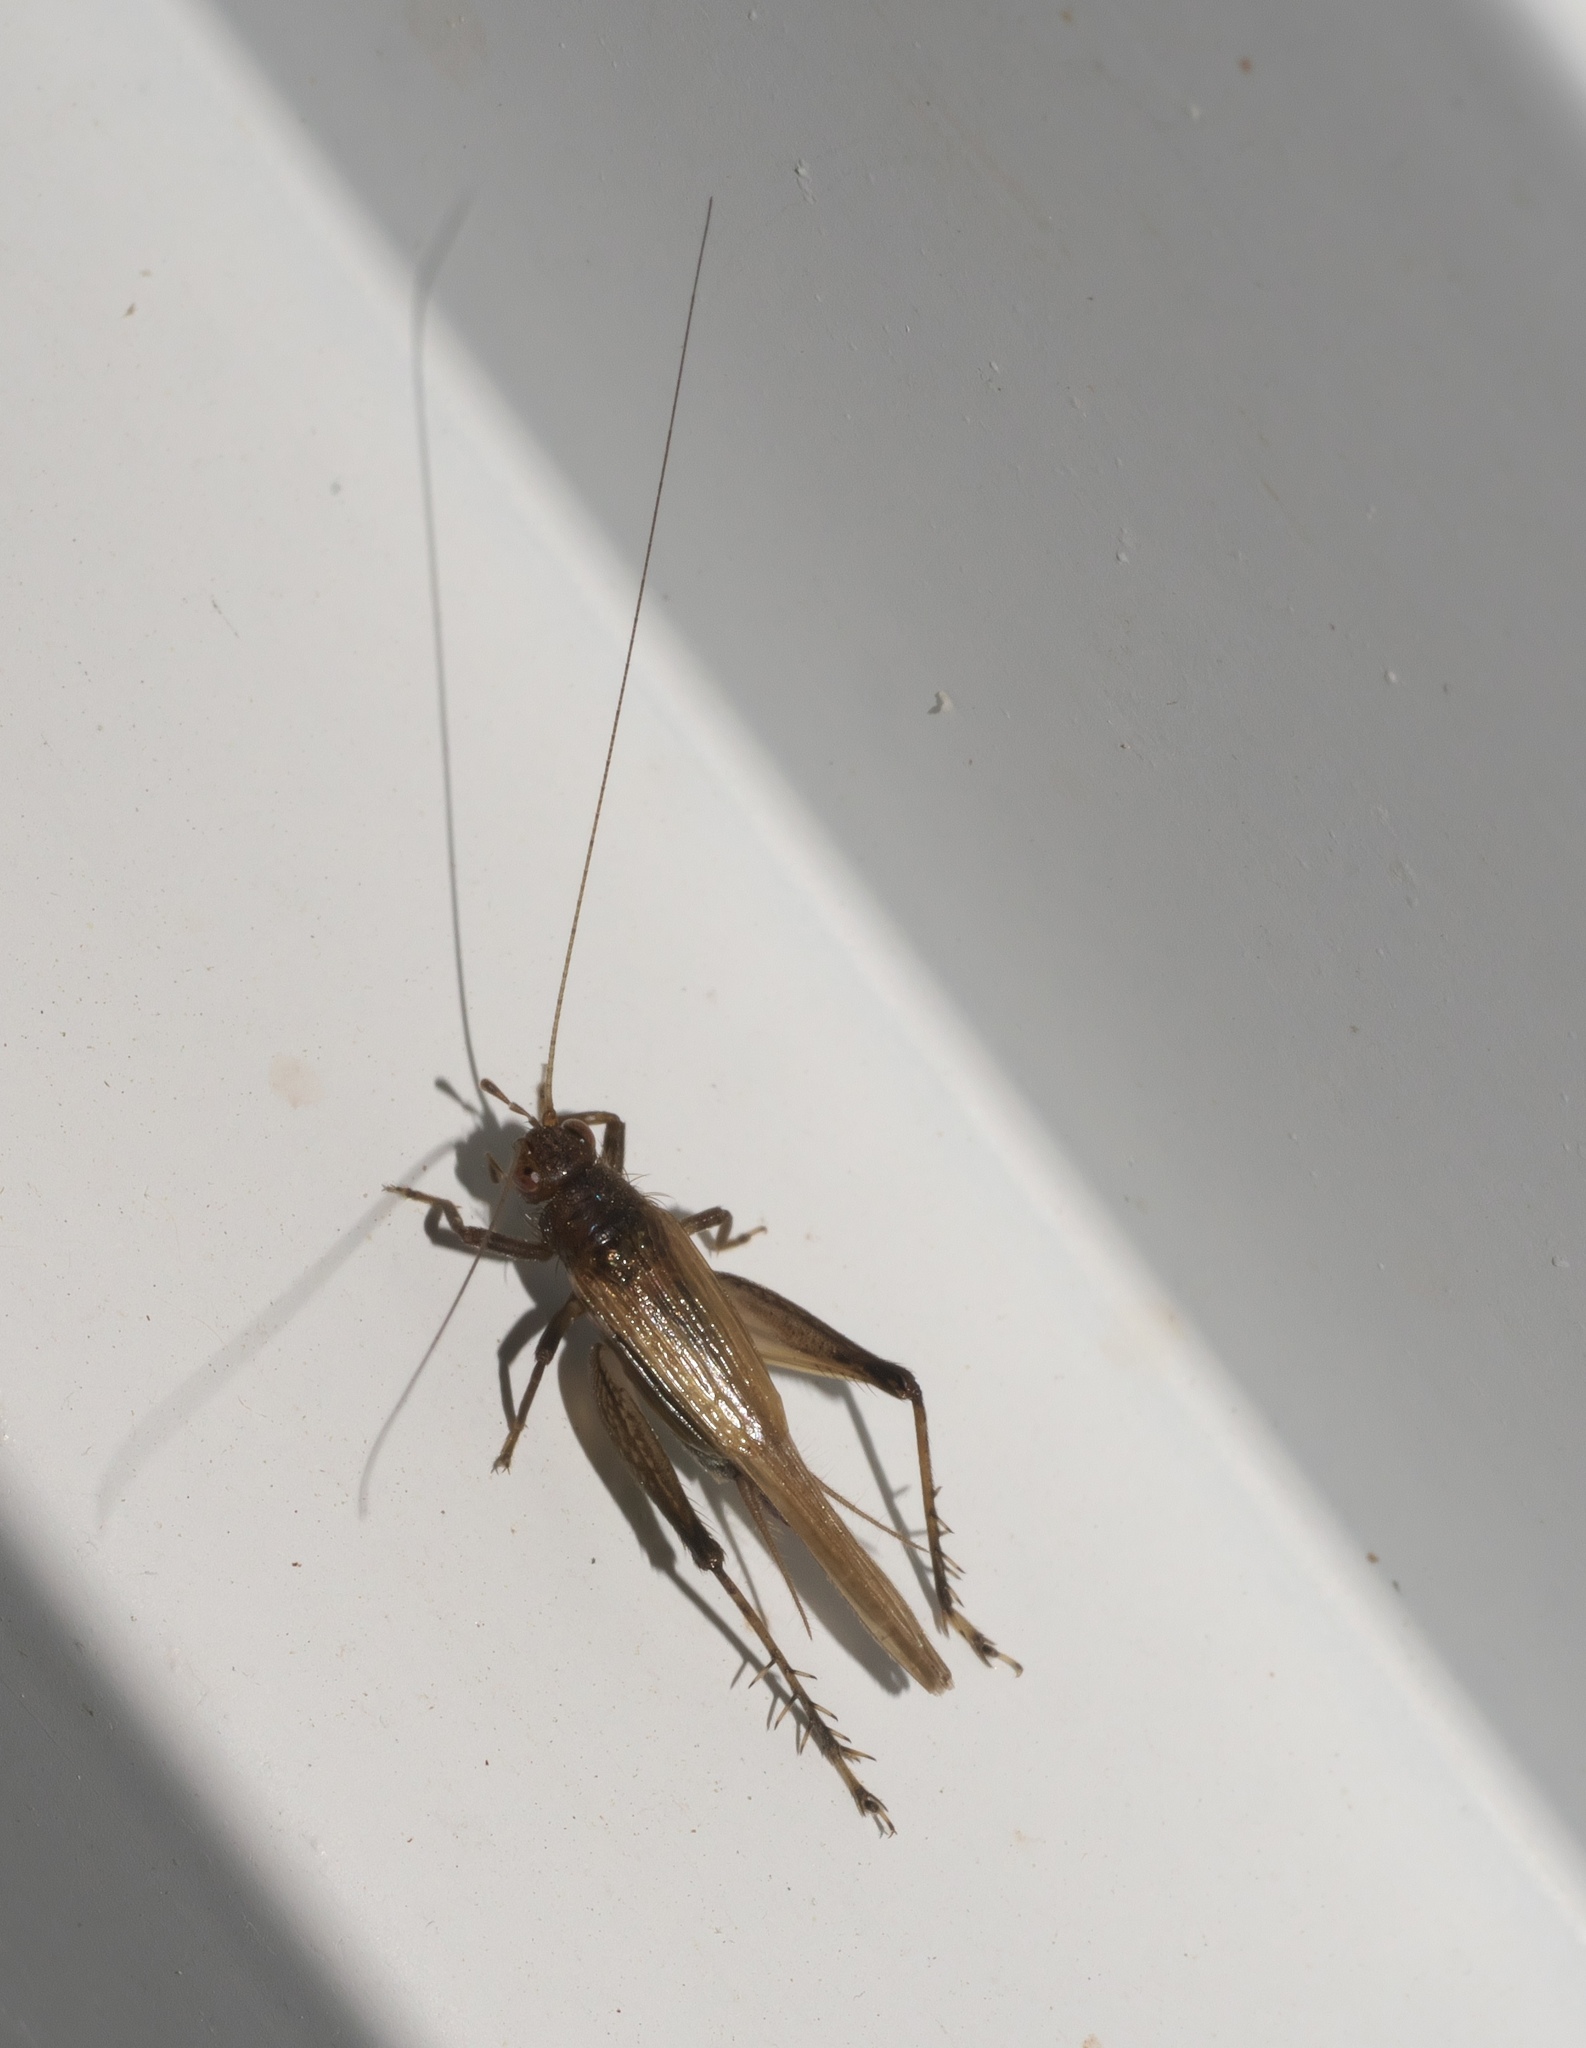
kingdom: Animalia
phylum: Arthropoda
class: Insecta
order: Orthoptera
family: Trigonidiidae
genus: Anaxipha
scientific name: Anaxipha vernalis
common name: Spring trig
